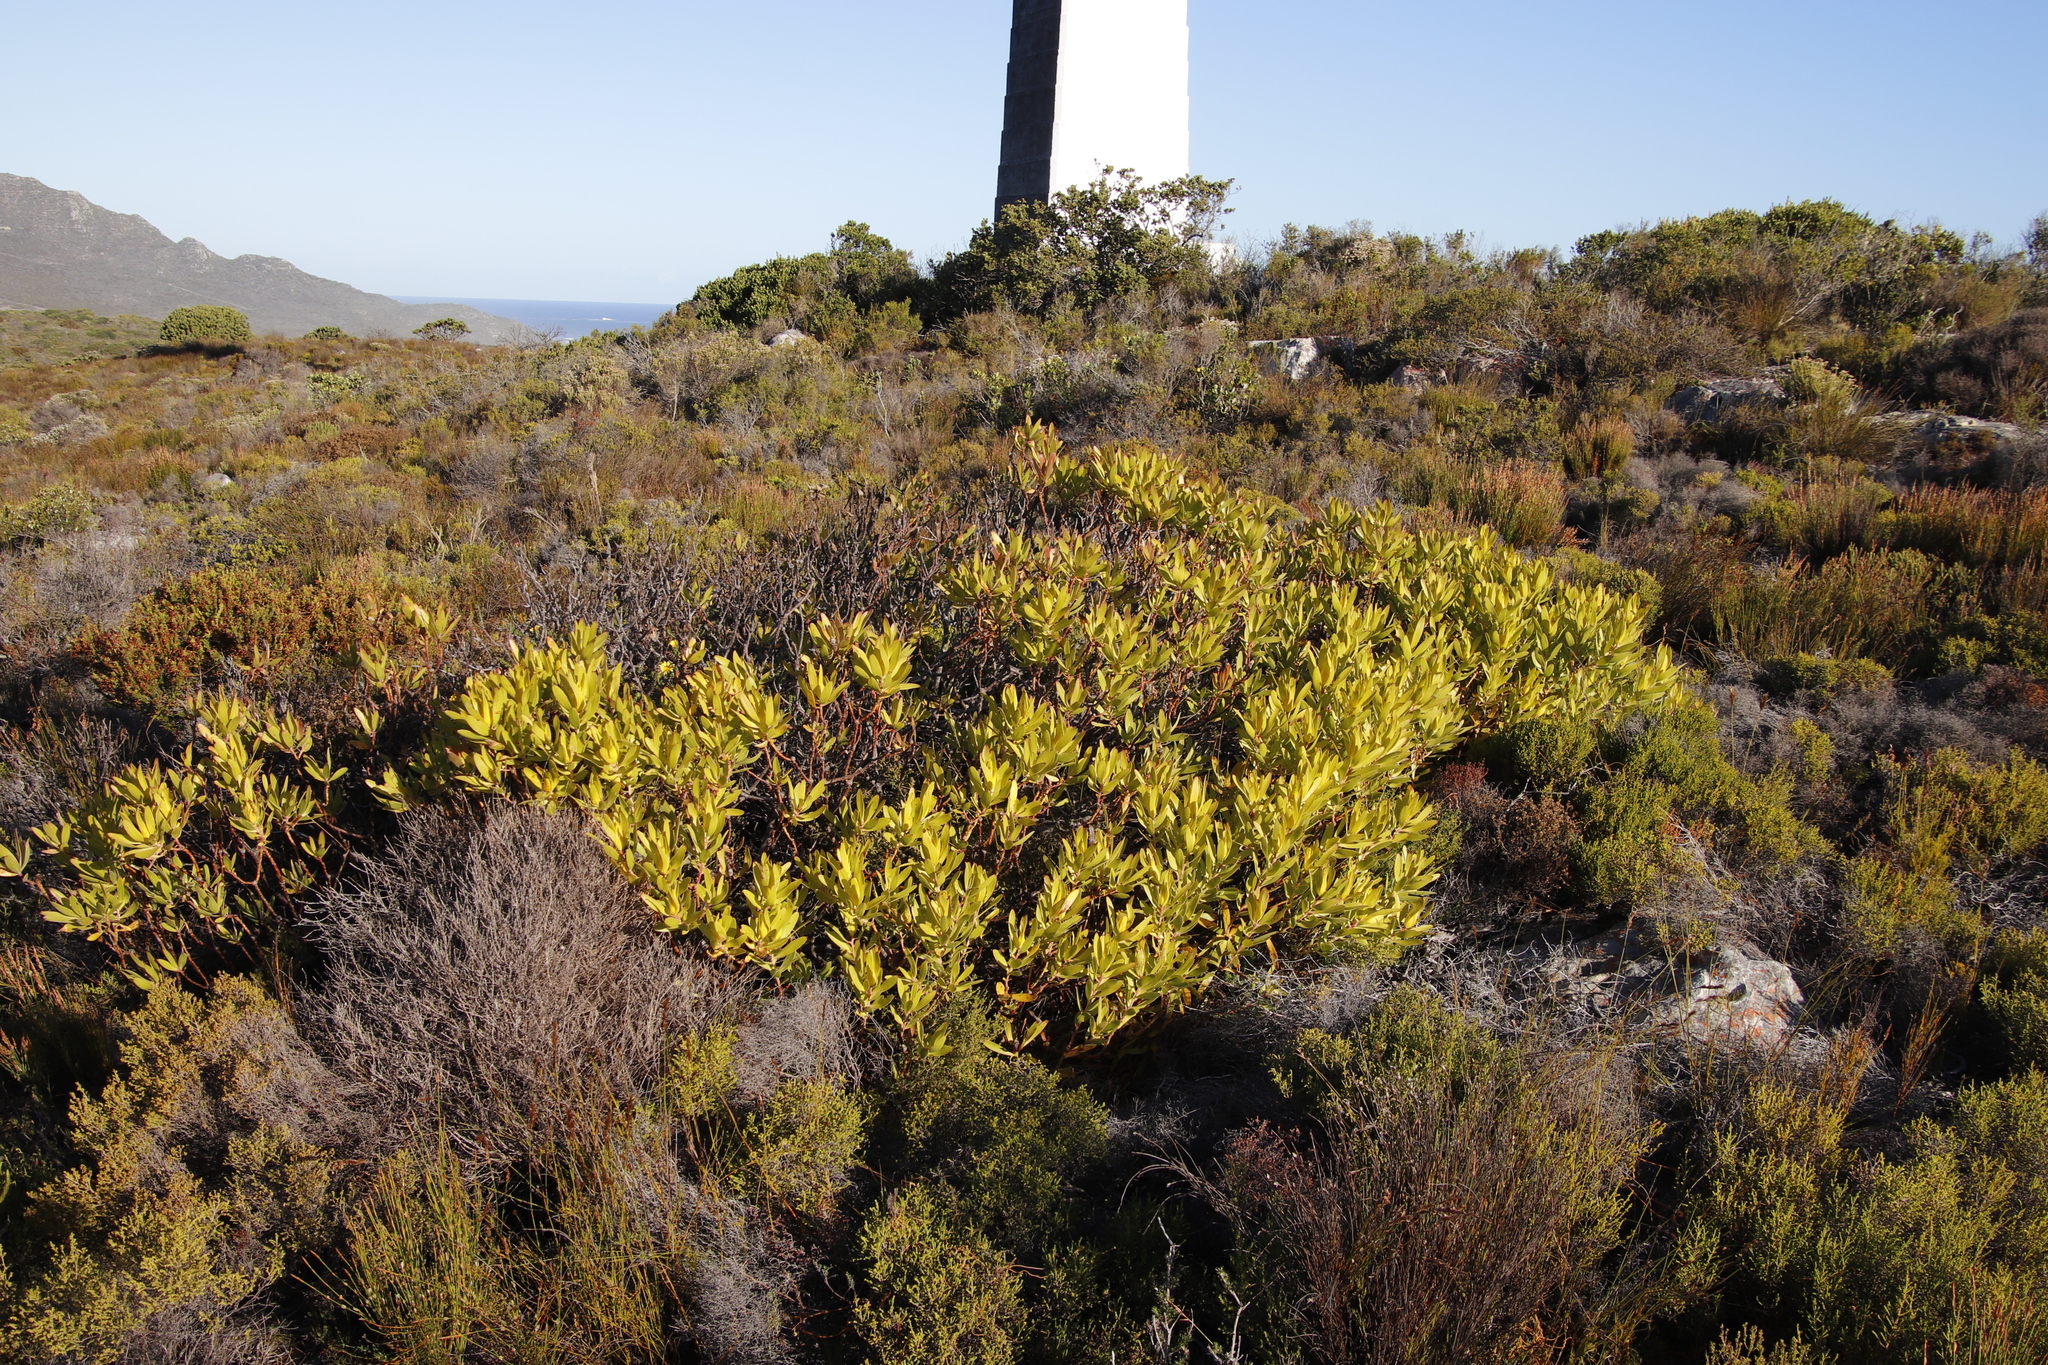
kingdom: Plantae
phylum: Tracheophyta
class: Magnoliopsida
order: Proteales
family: Proteaceae
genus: Leucadendron
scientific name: Leucadendron laureolum
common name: Golden sunshinebush
